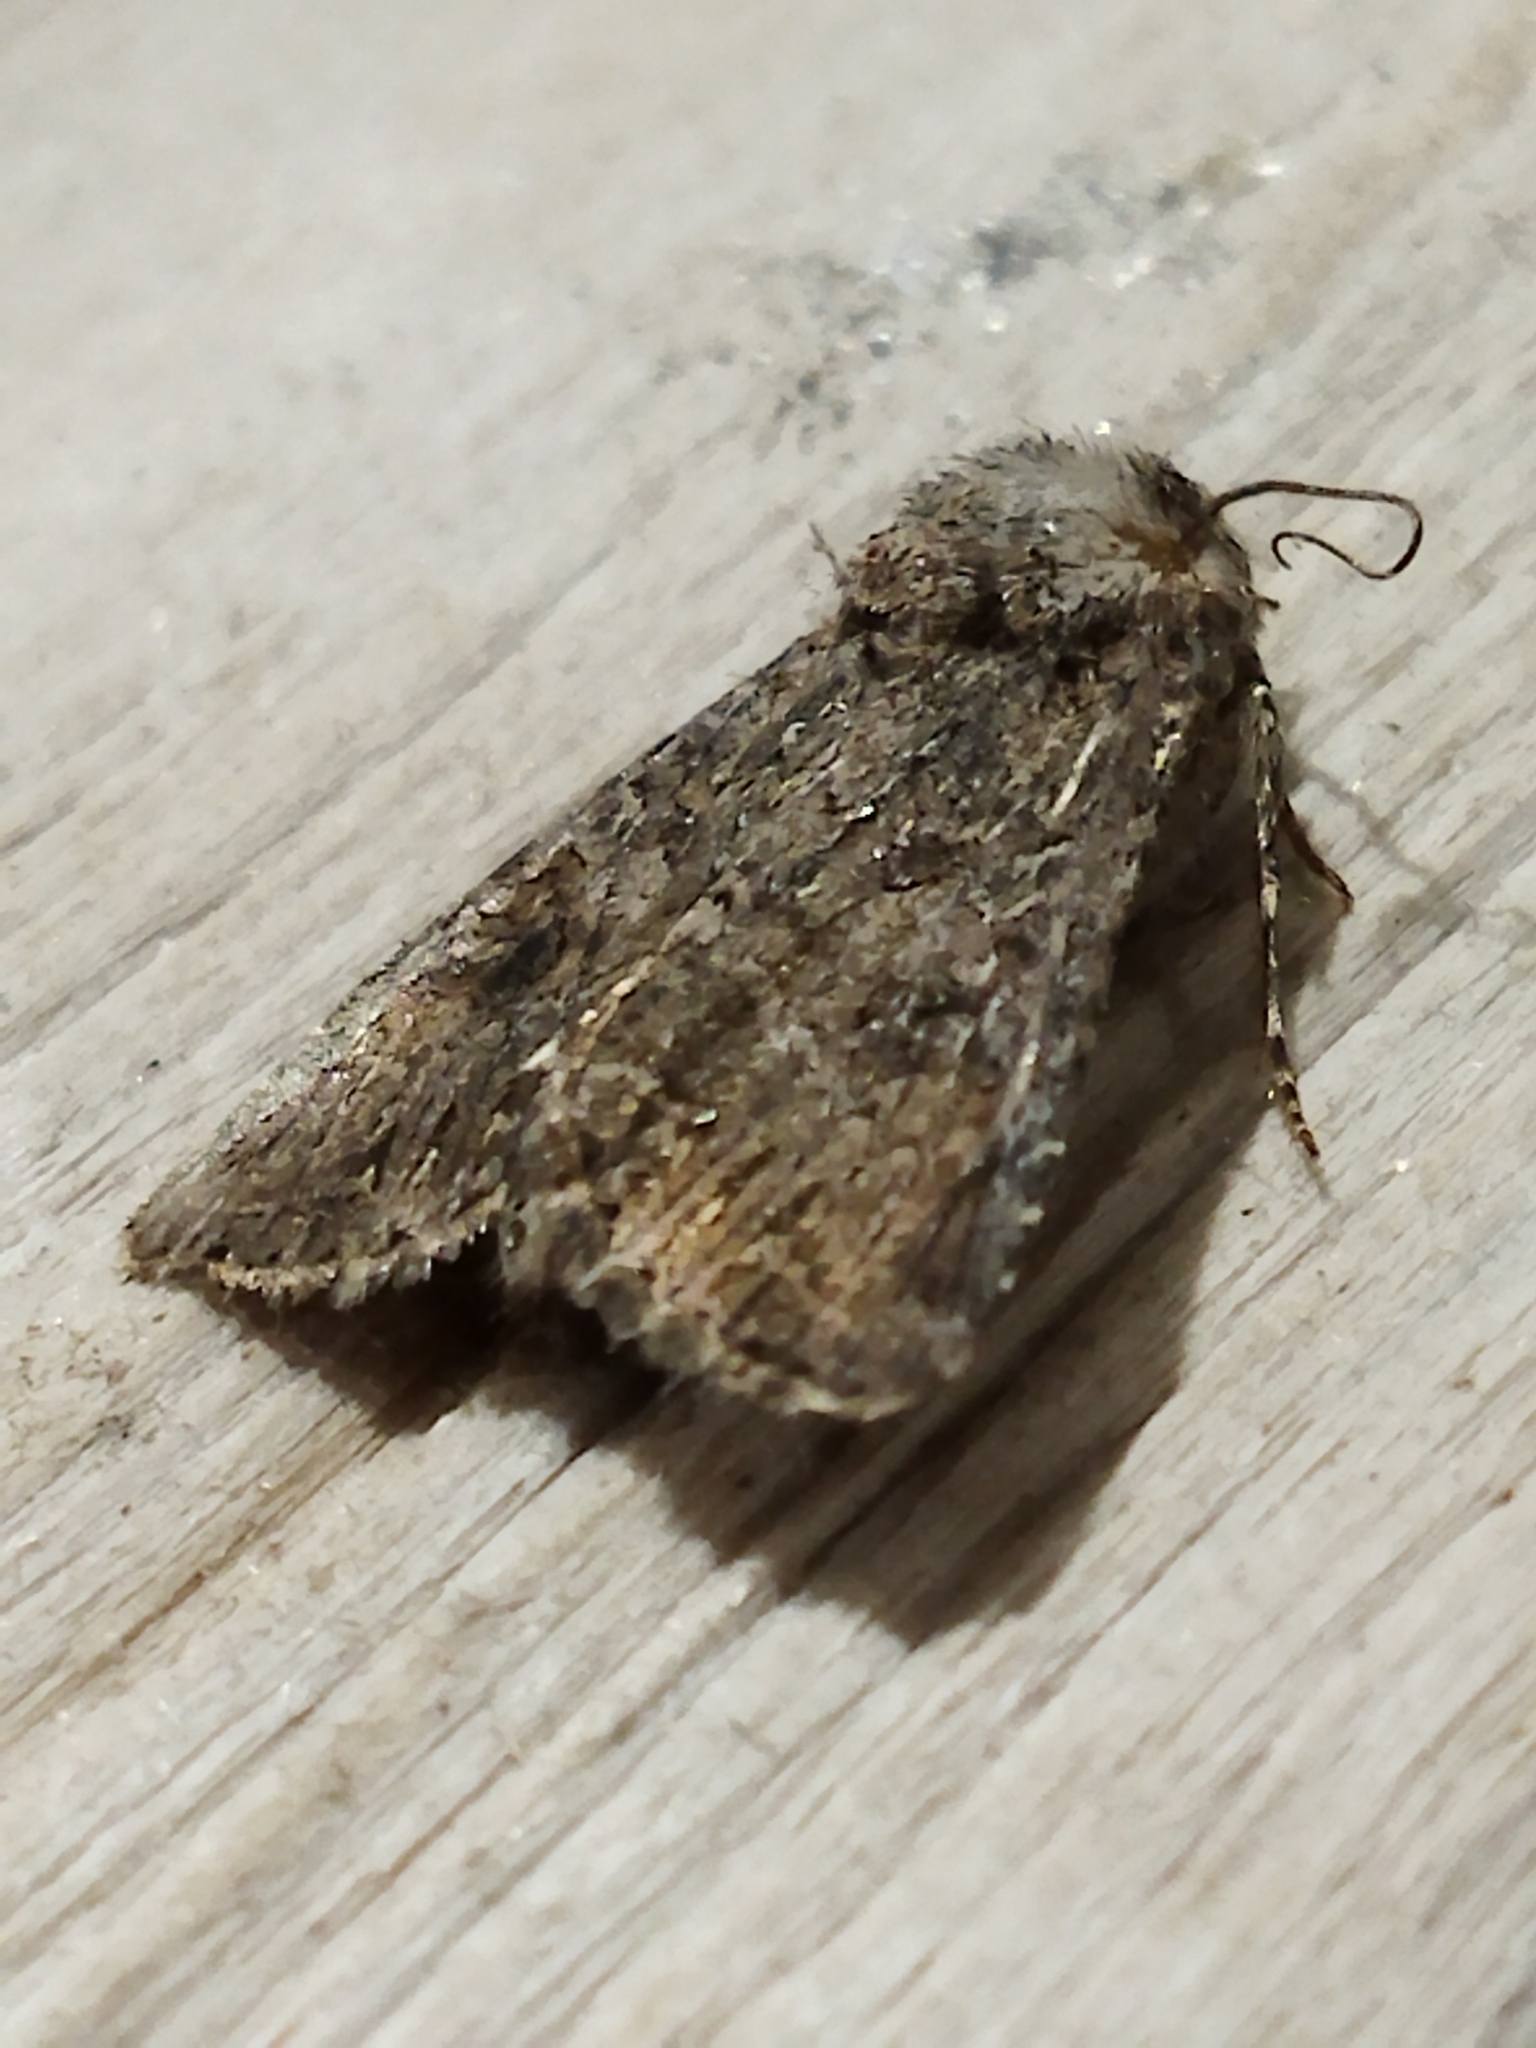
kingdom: Animalia
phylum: Arthropoda
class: Insecta
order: Lepidoptera
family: Noctuidae
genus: Anarta
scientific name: Anarta trifolii
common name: Clover cutworm moth
